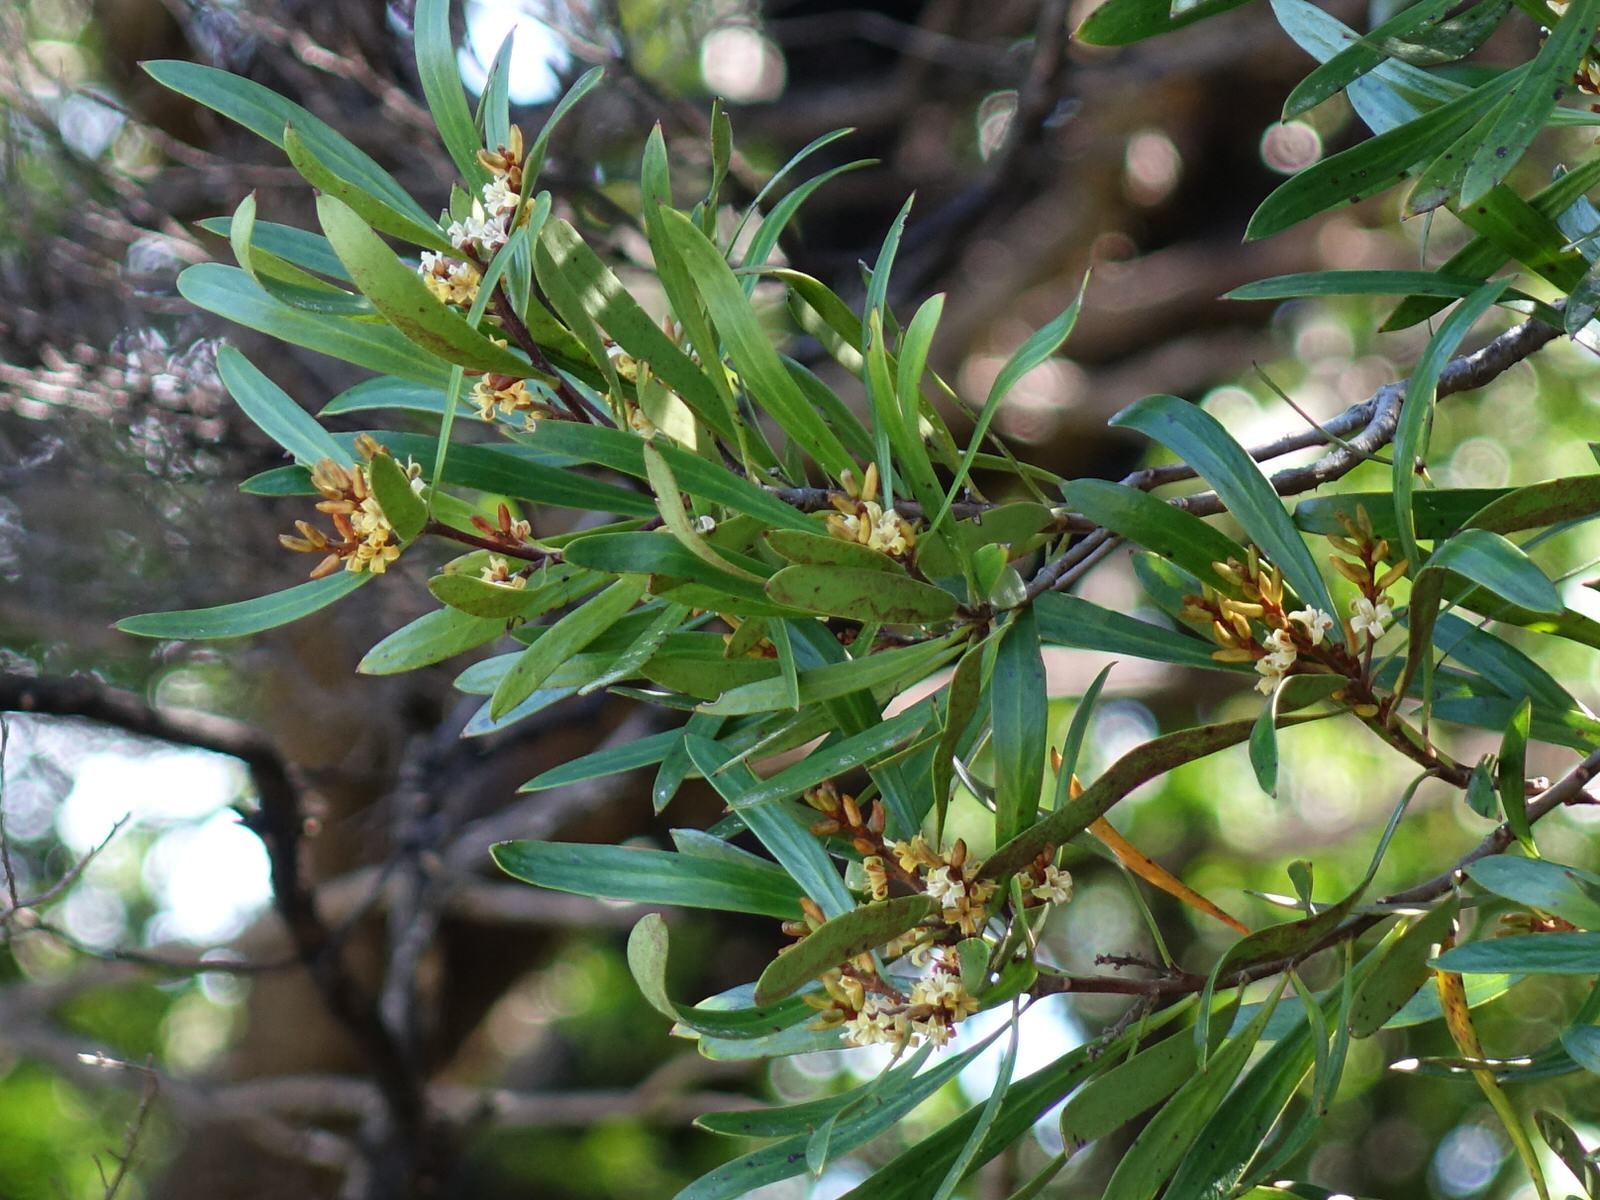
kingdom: Plantae
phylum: Tracheophyta
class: Magnoliopsida
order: Proteales
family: Proteaceae
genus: Toronia
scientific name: Toronia toru
